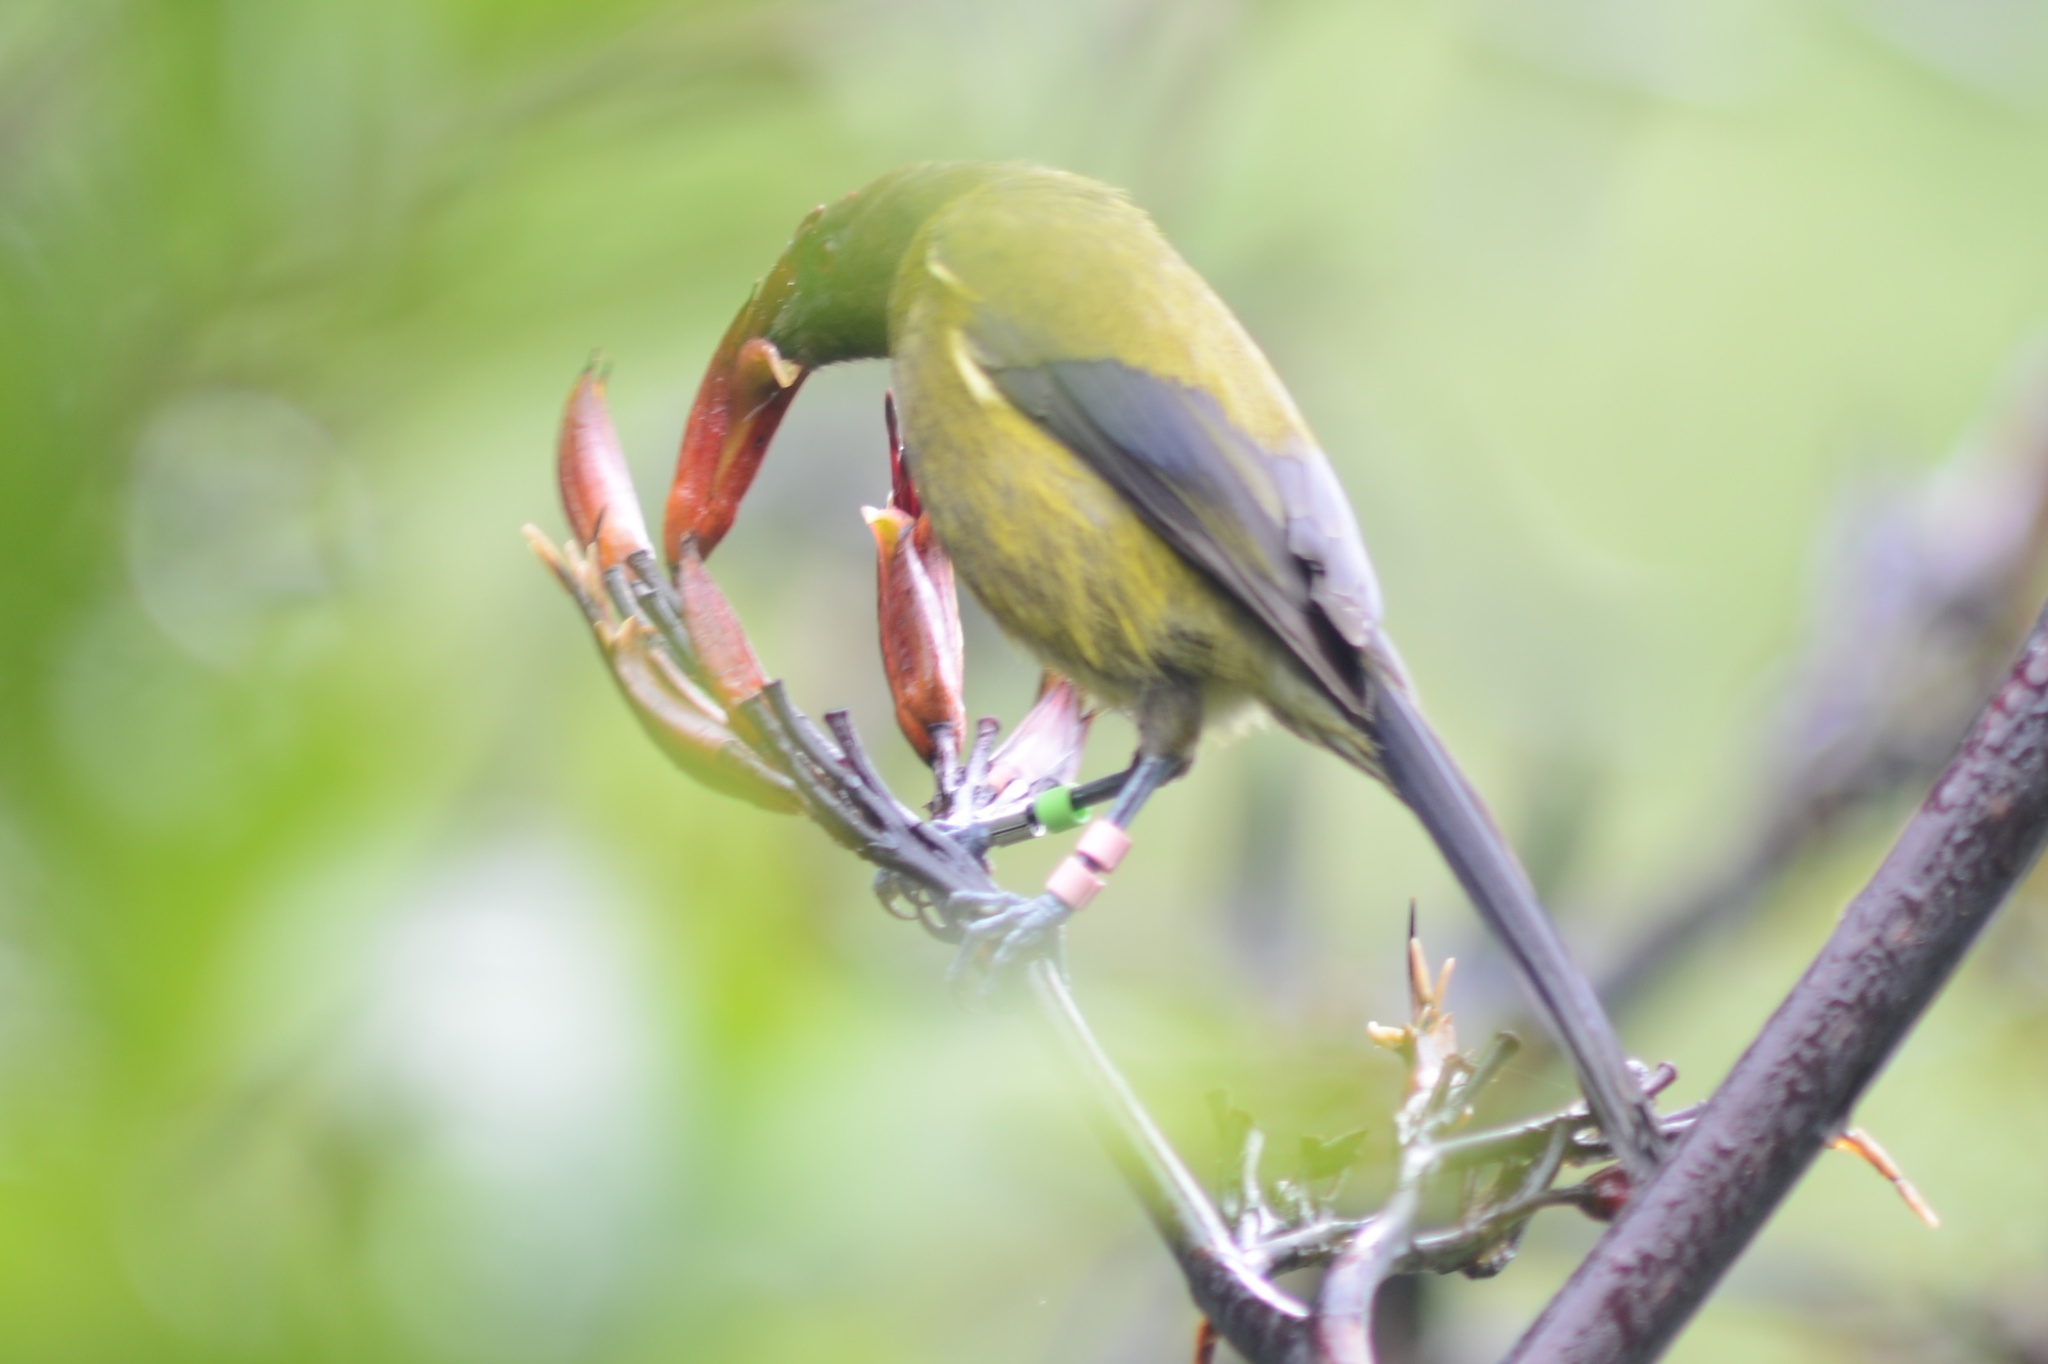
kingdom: Animalia
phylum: Chordata
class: Aves
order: Passeriformes
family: Meliphagidae
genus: Anthornis
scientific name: Anthornis melanura
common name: New zealand bellbird
